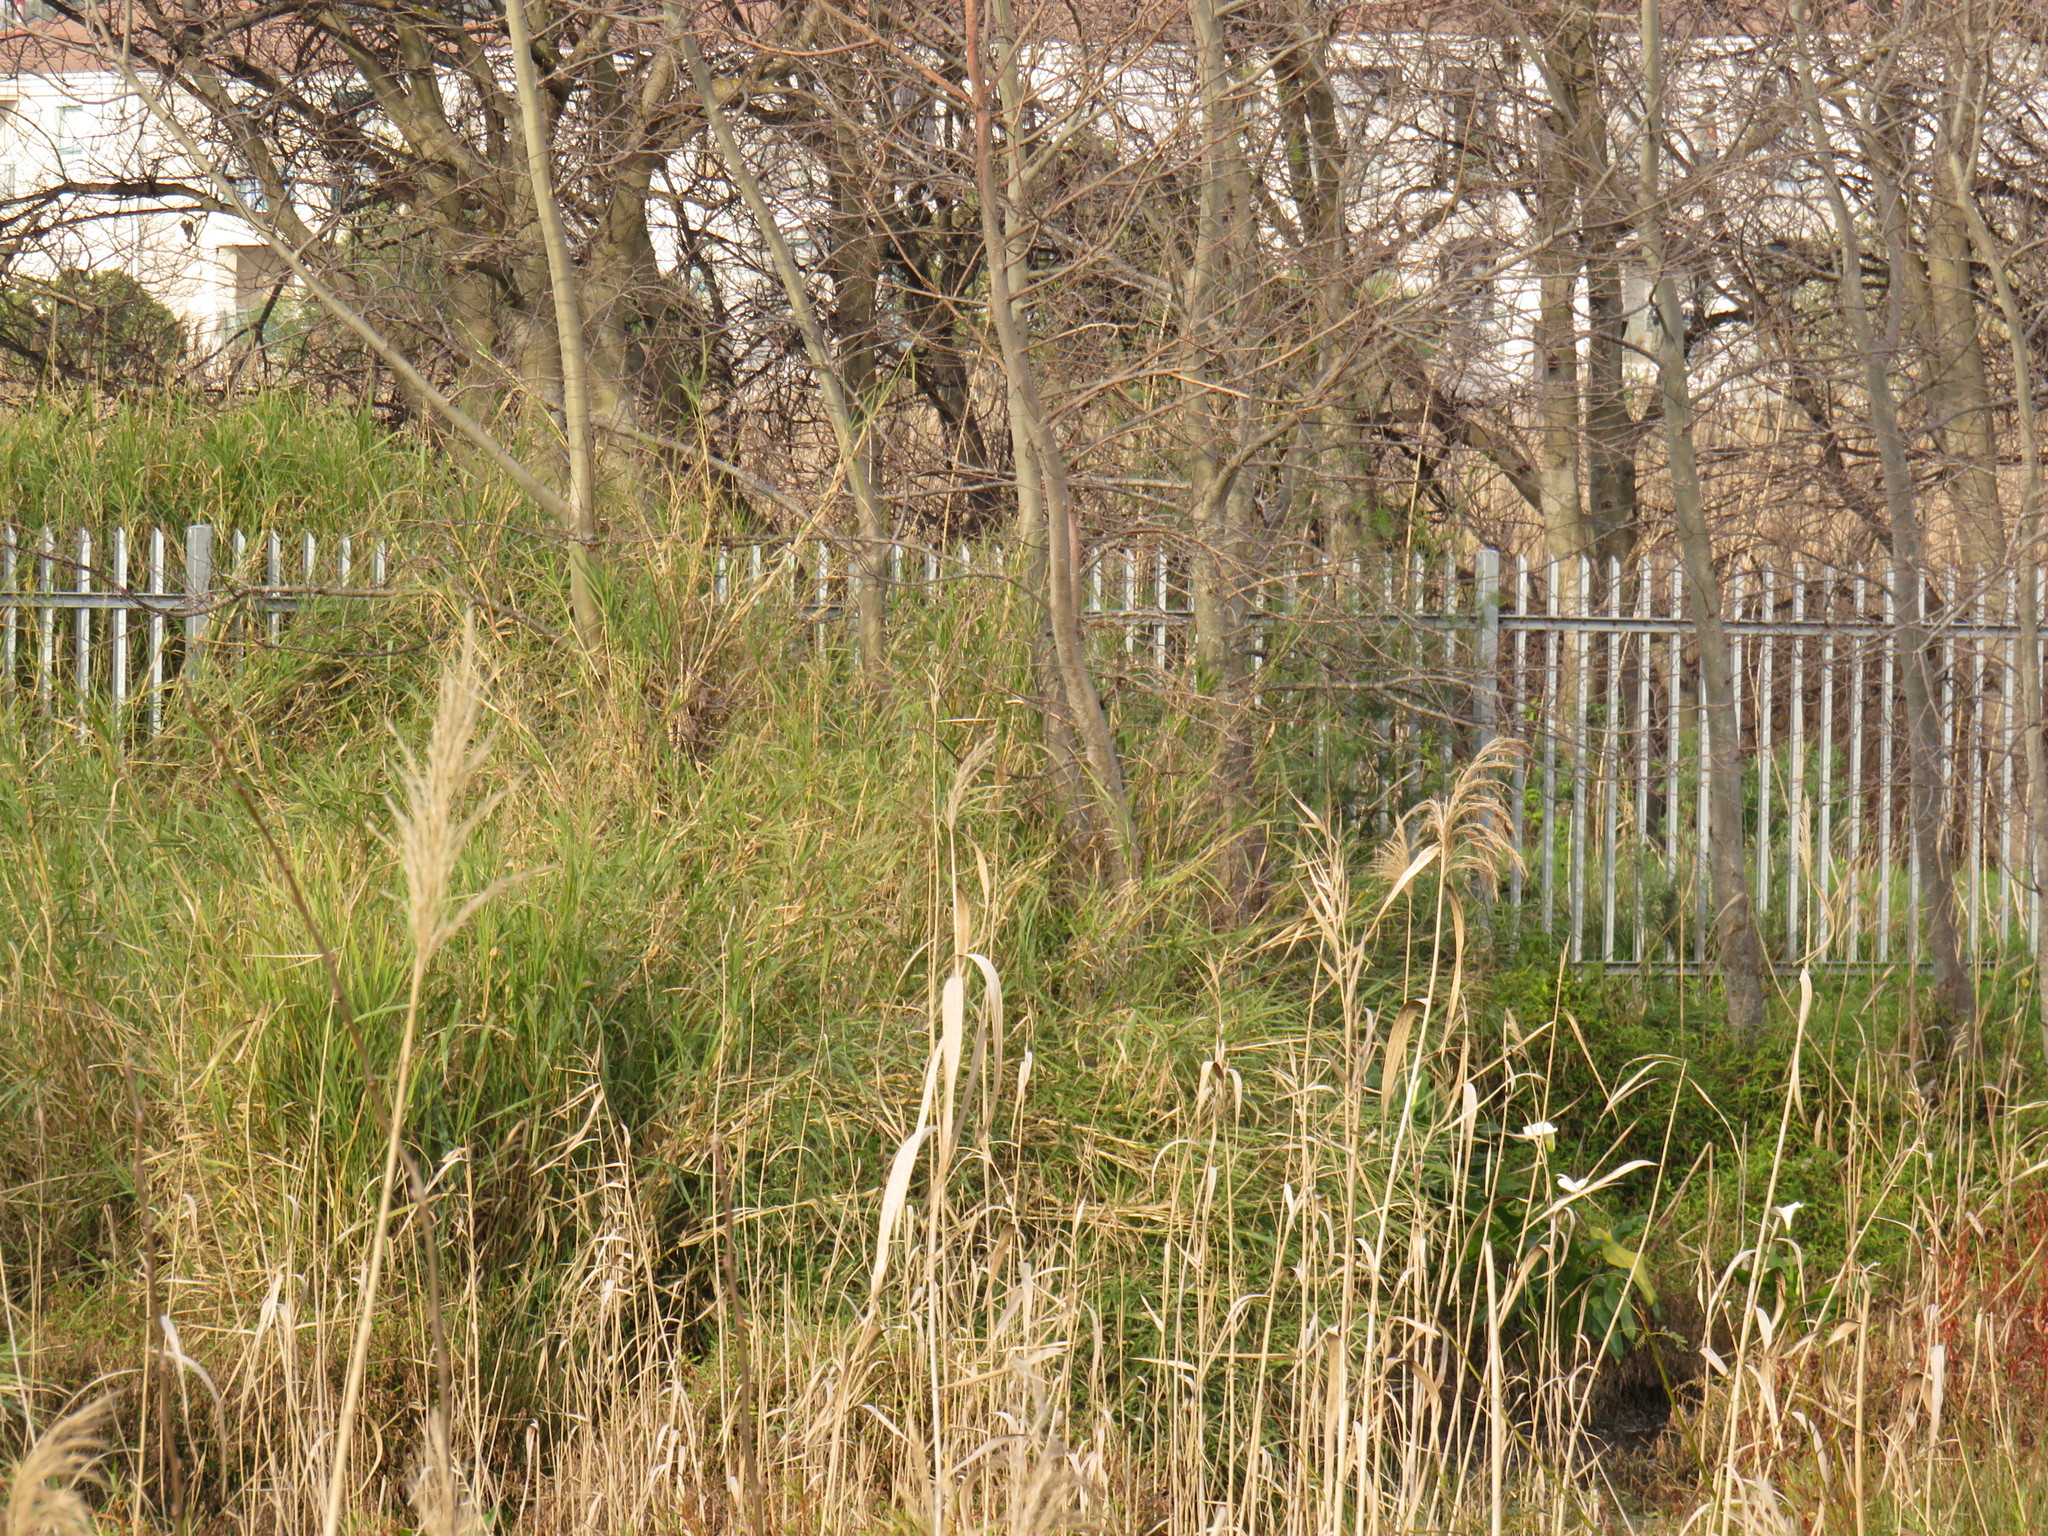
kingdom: Plantae
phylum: Tracheophyta
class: Liliopsida
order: Poales
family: Poaceae
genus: Echinochloa
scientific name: Echinochloa pyramidalis
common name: Antelope grass
